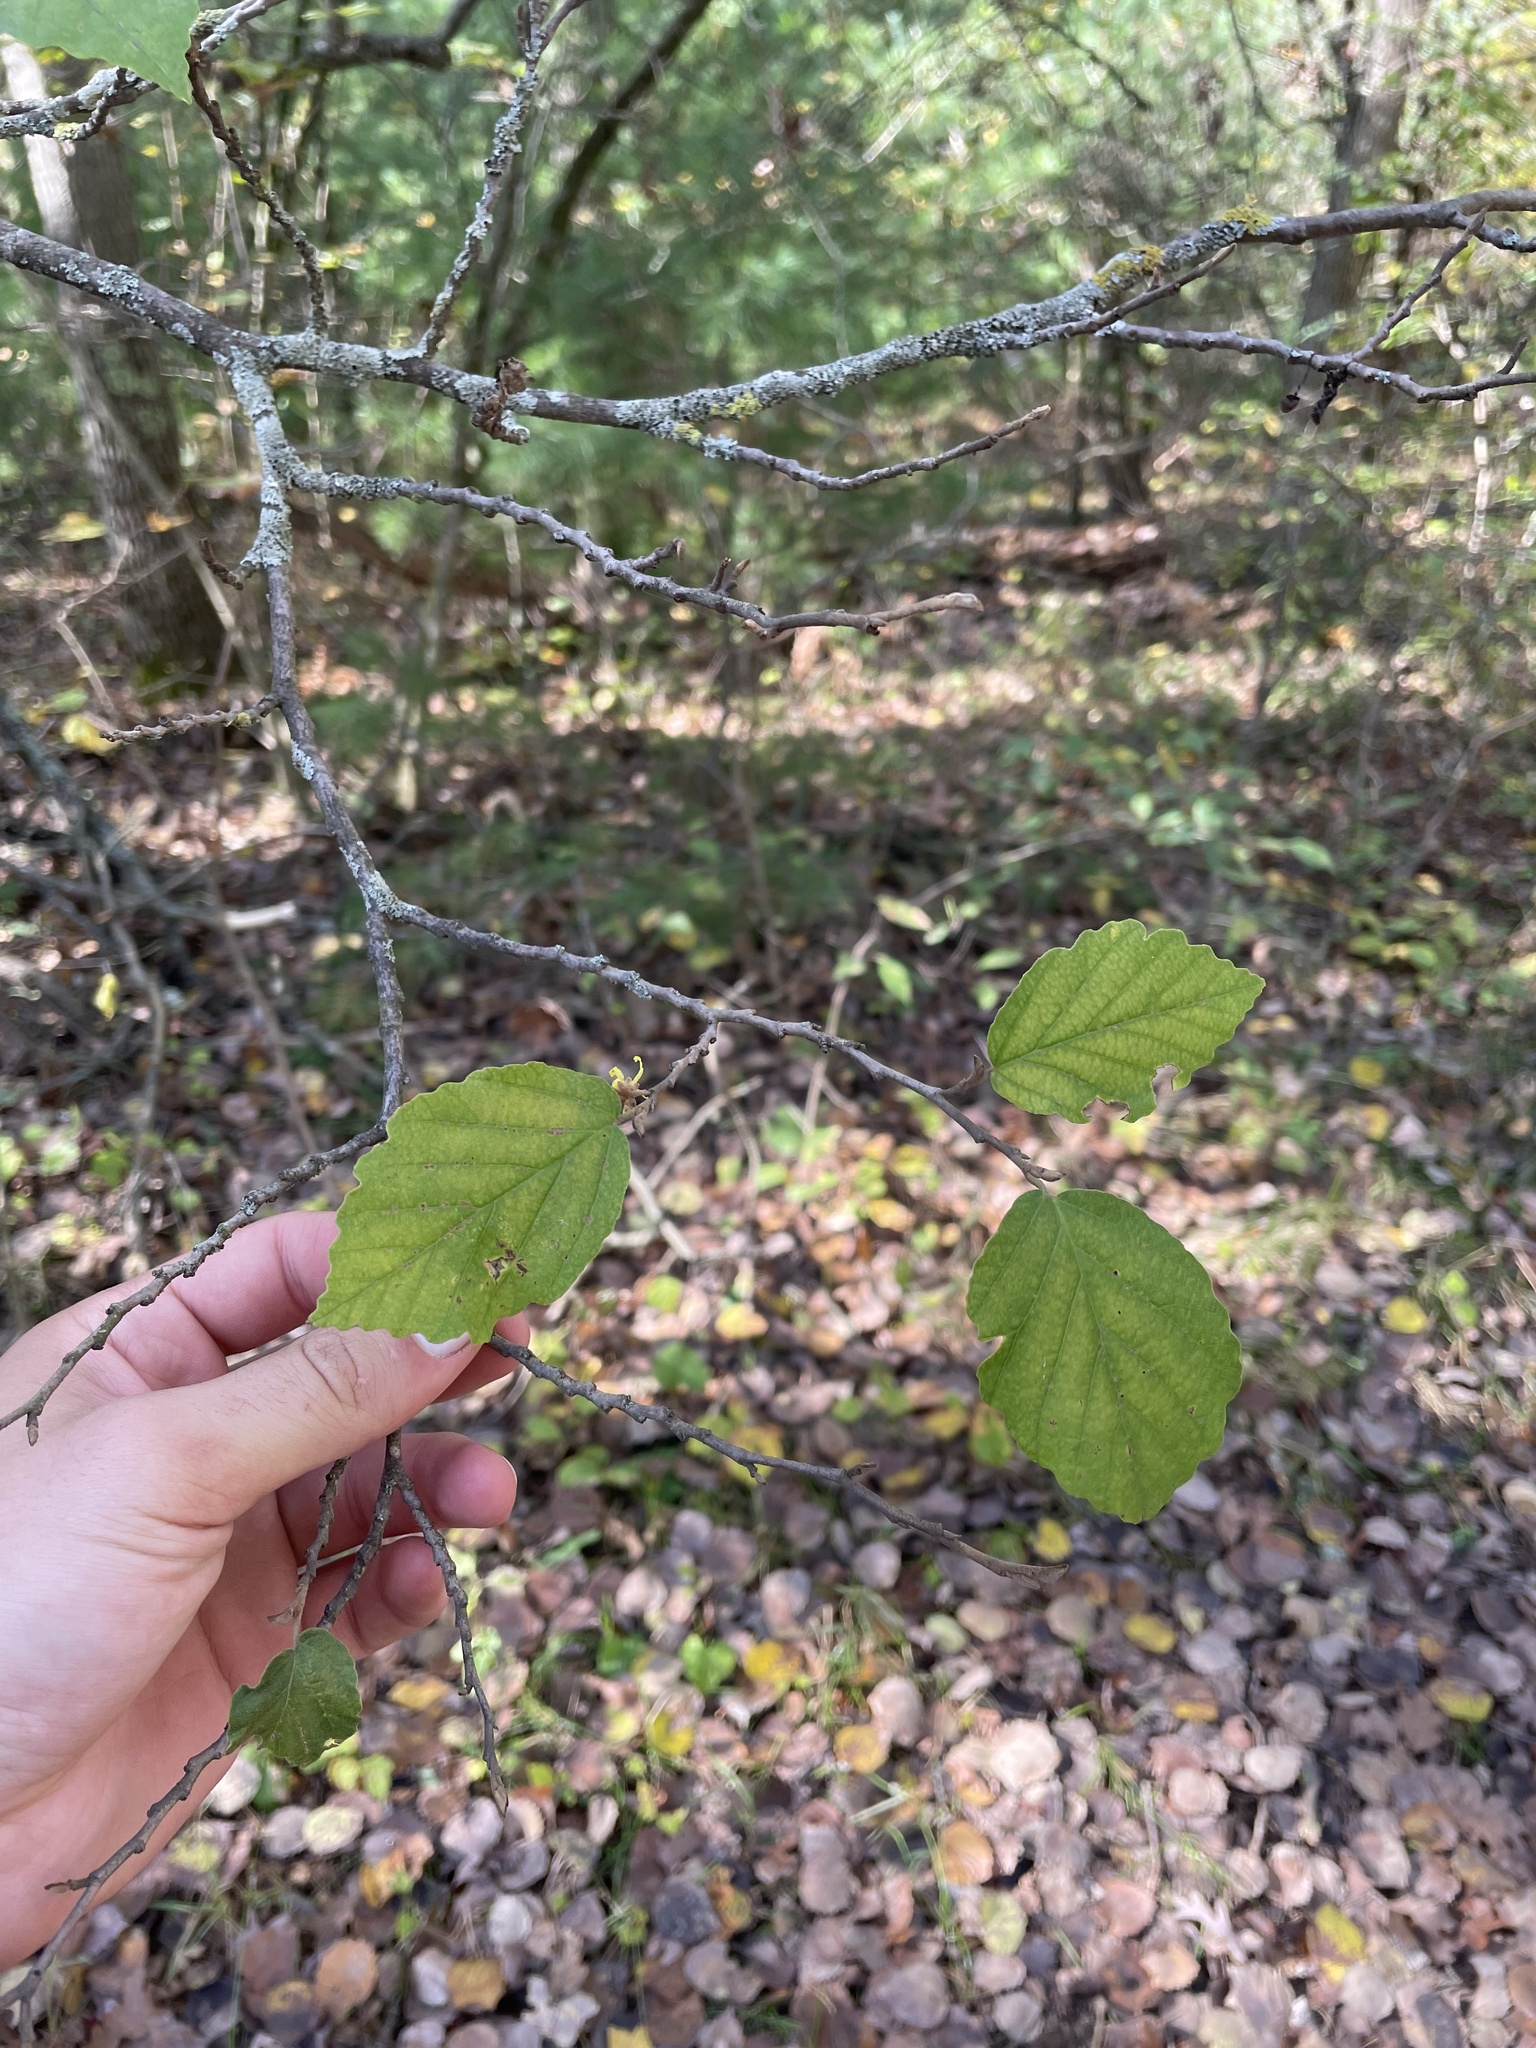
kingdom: Plantae
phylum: Tracheophyta
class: Magnoliopsida
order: Saxifragales
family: Hamamelidaceae
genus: Hamamelis
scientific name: Hamamelis virginiana
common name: Witch-hazel
